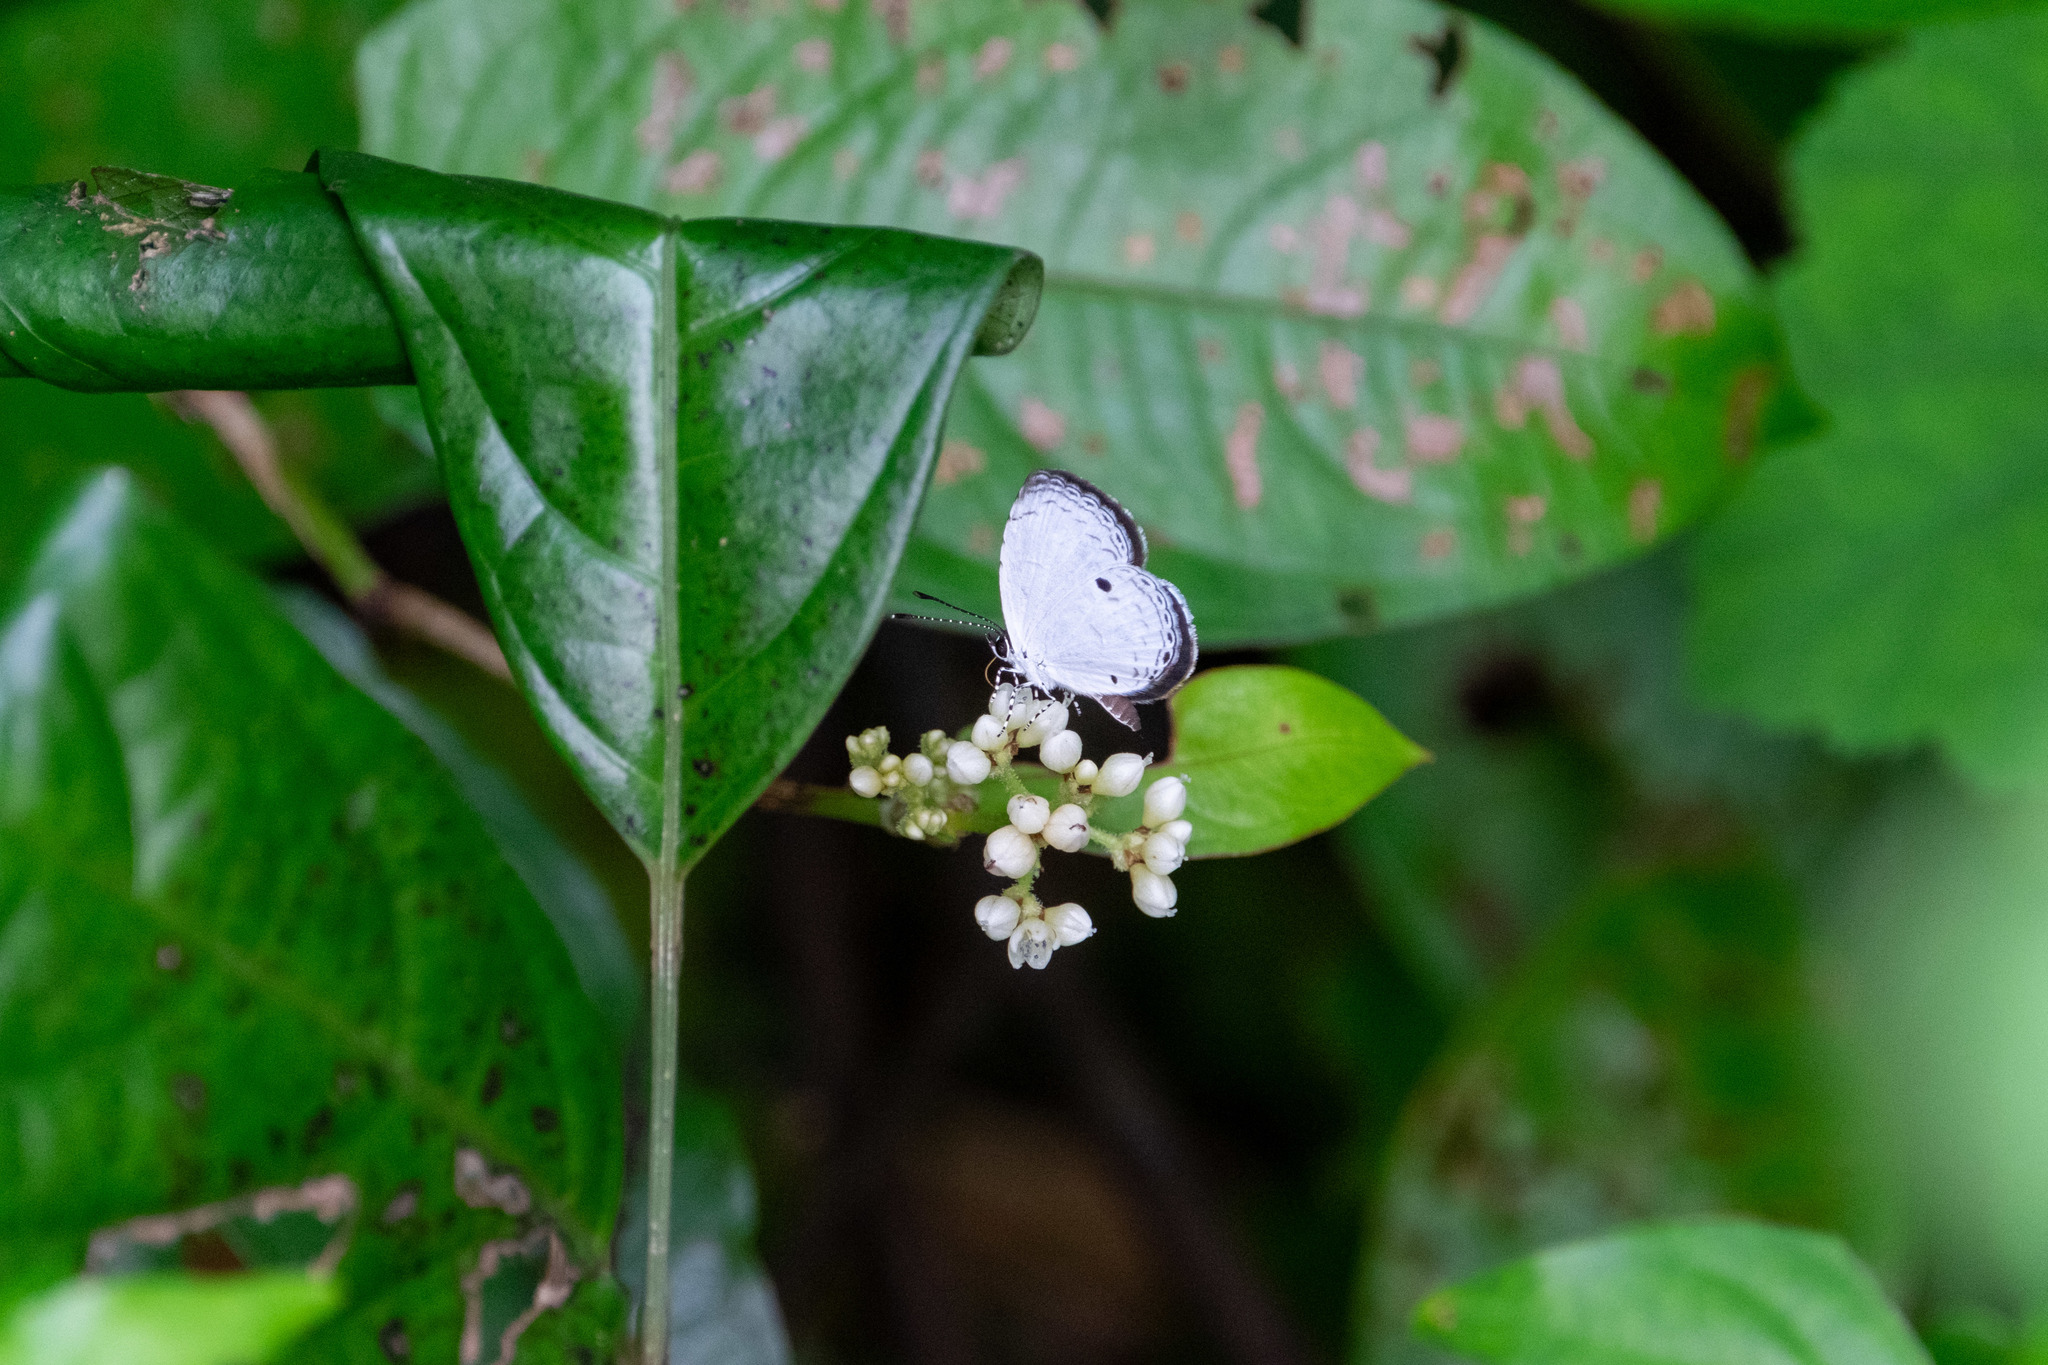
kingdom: Animalia
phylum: Arthropoda
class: Insecta
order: Lepidoptera
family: Lycaenidae
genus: Neopithecops
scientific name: Neopithecops zalmora
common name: Quaker
